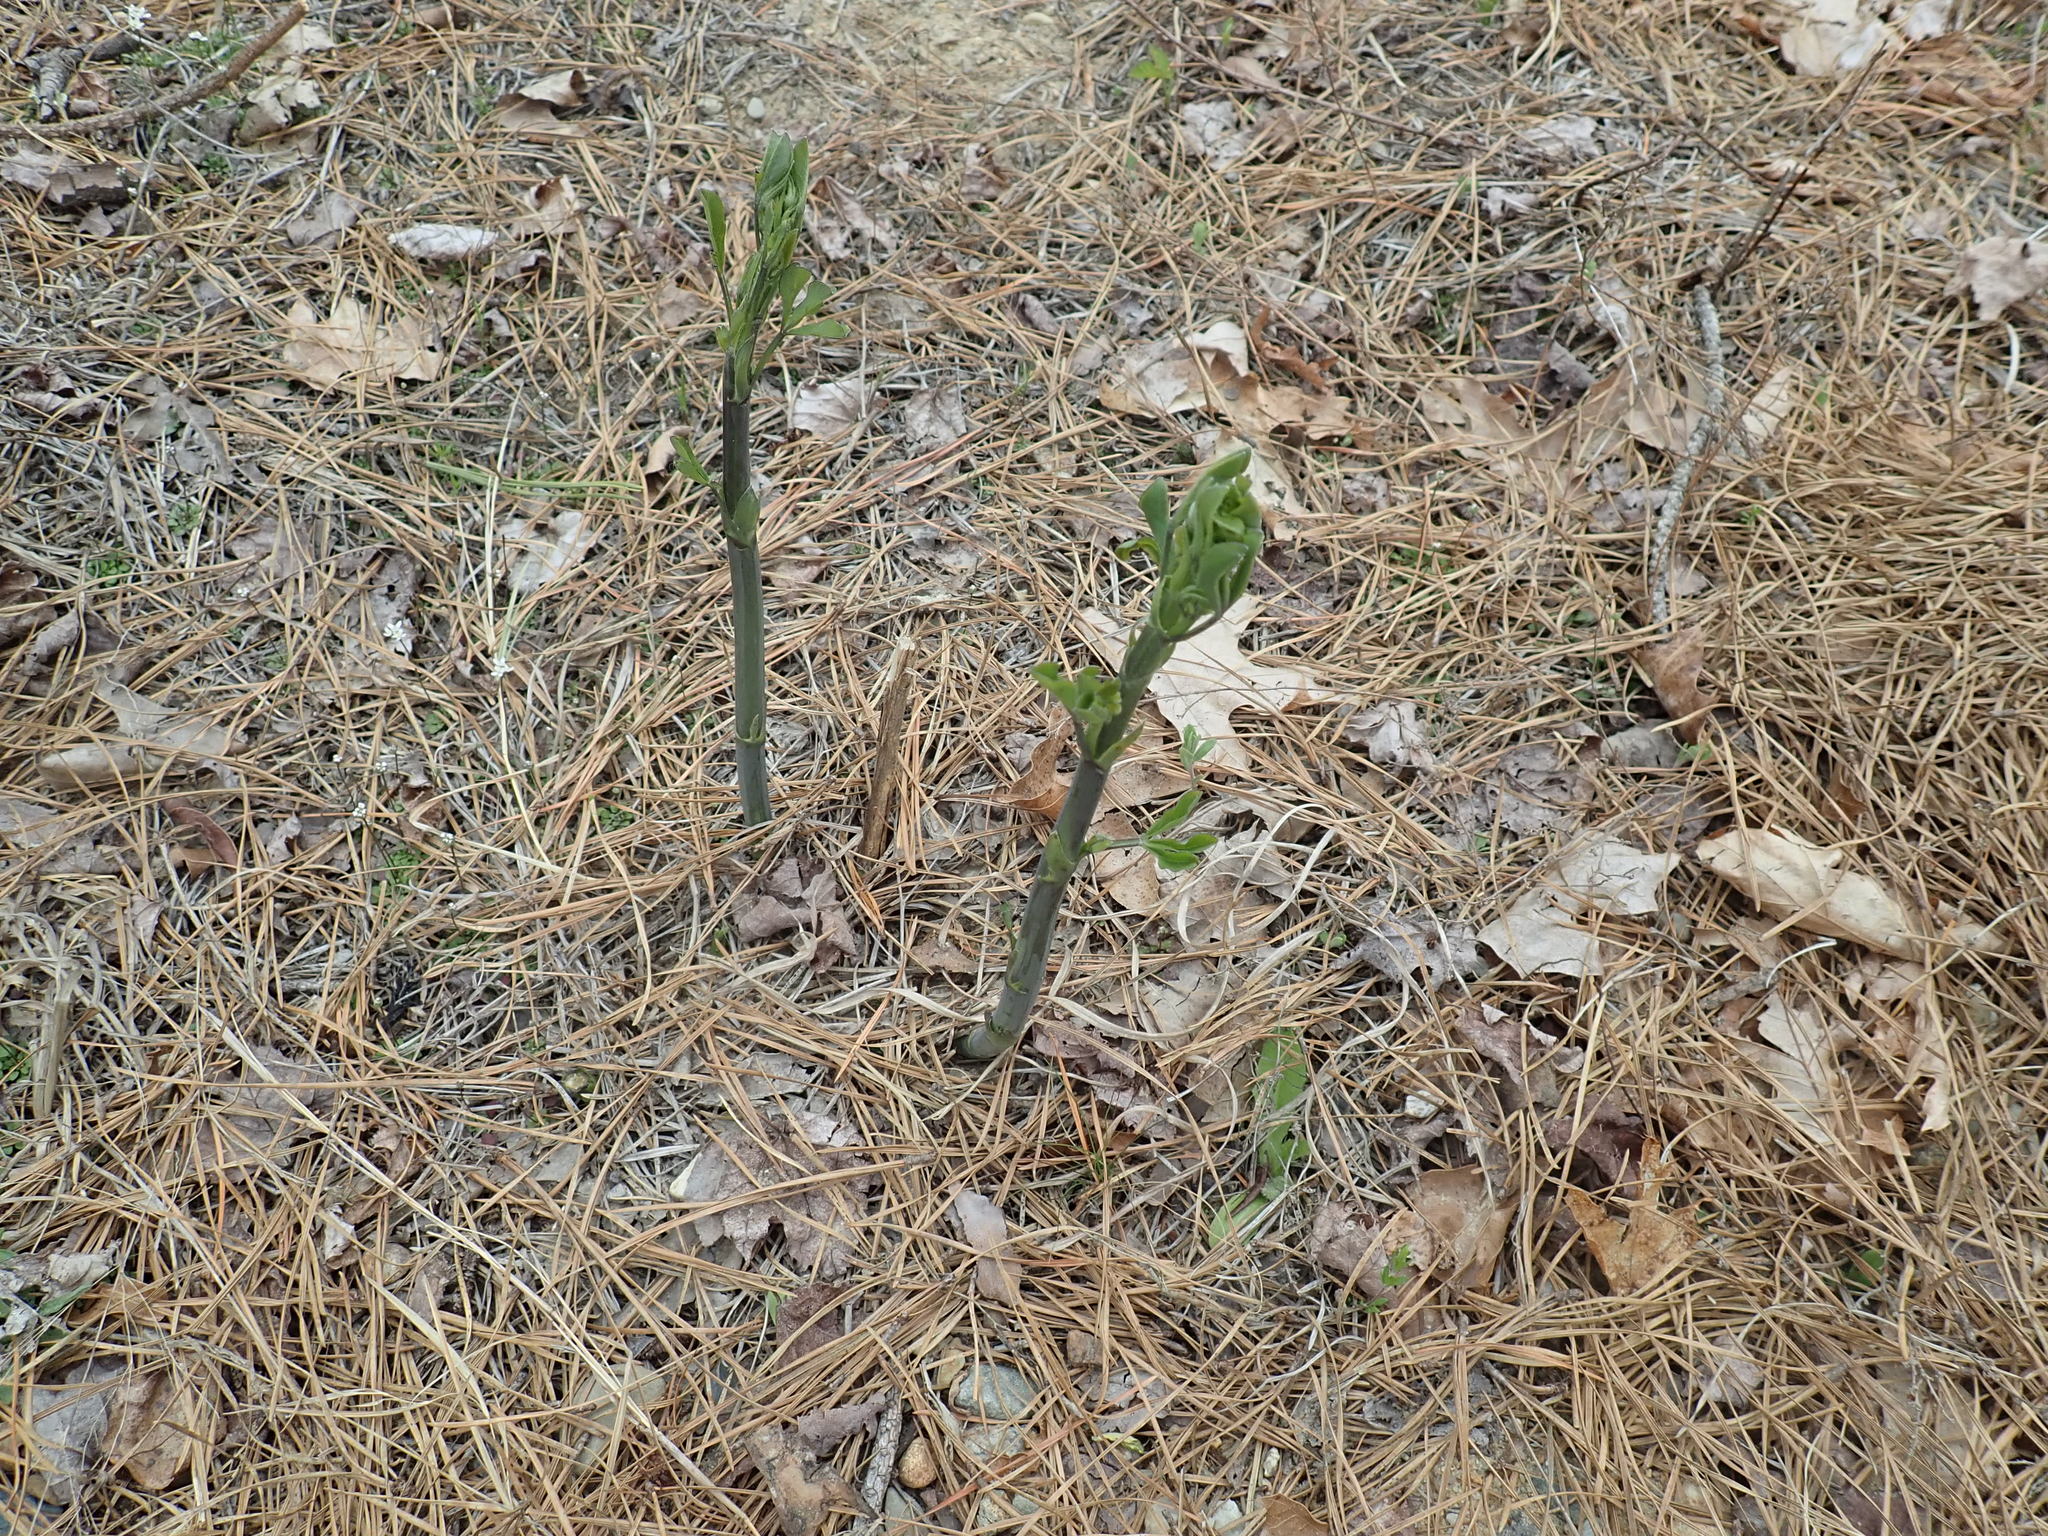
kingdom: Plantae
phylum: Tracheophyta
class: Magnoliopsida
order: Fabales
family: Fabaceae
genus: Baptisia
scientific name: Baptisia tinctoria
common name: Wild indigo
